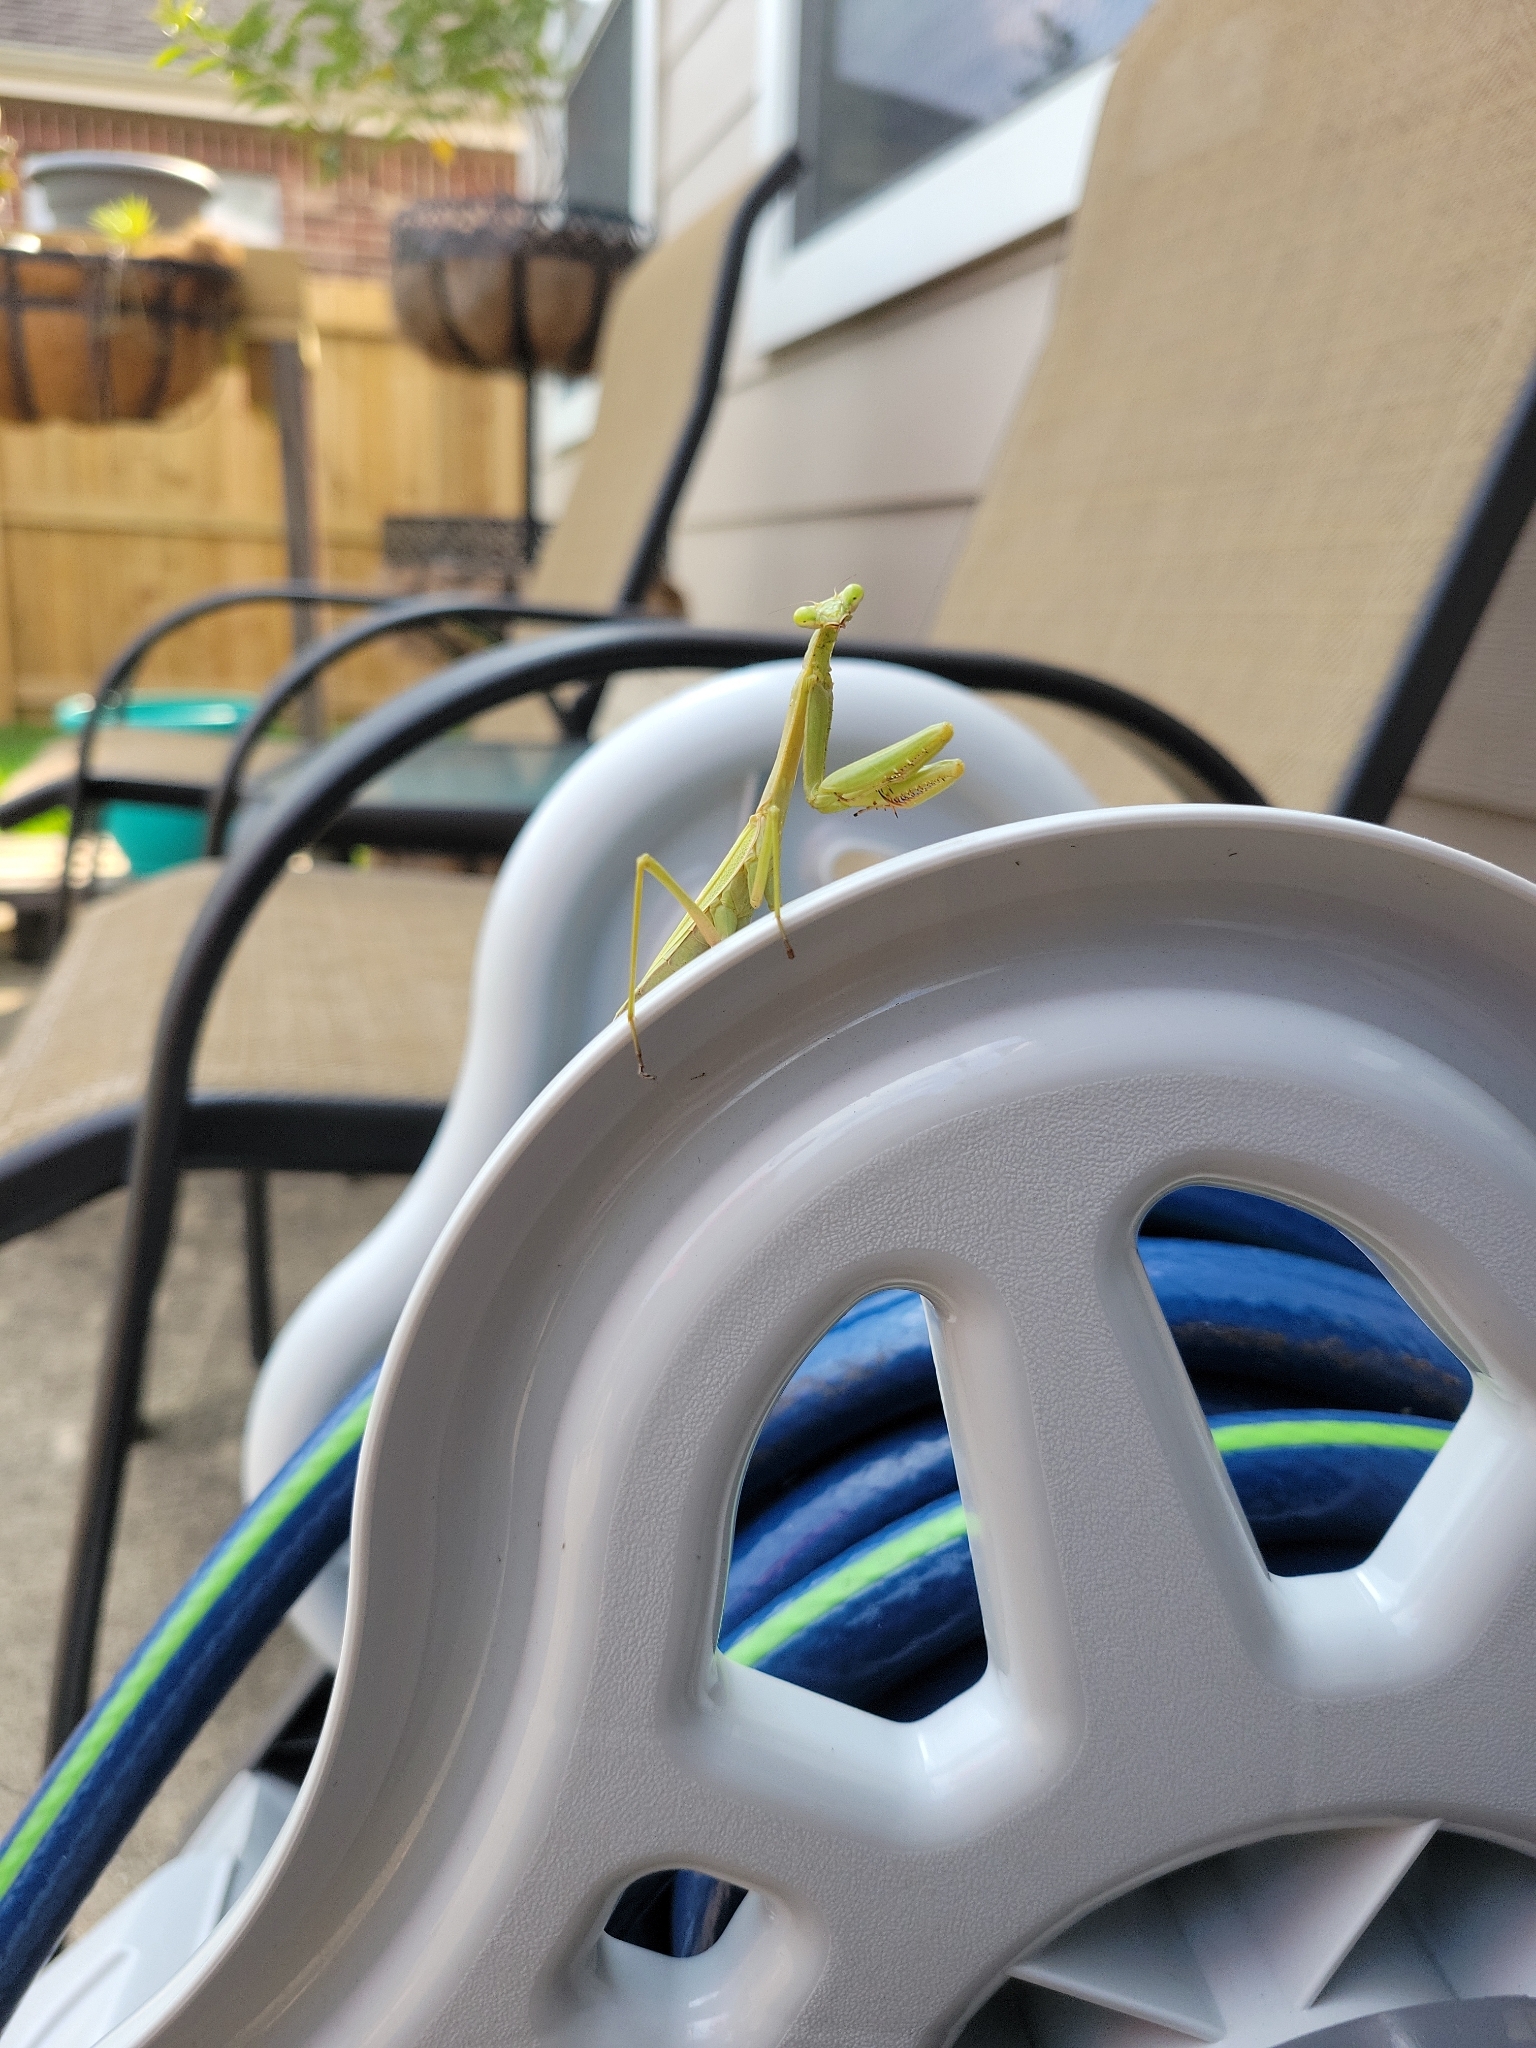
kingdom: Animalia
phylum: Arthropoda
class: Insecta
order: Mantodea
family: Mantidae
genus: Stagmomantis
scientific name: Stagmomantis carolina
